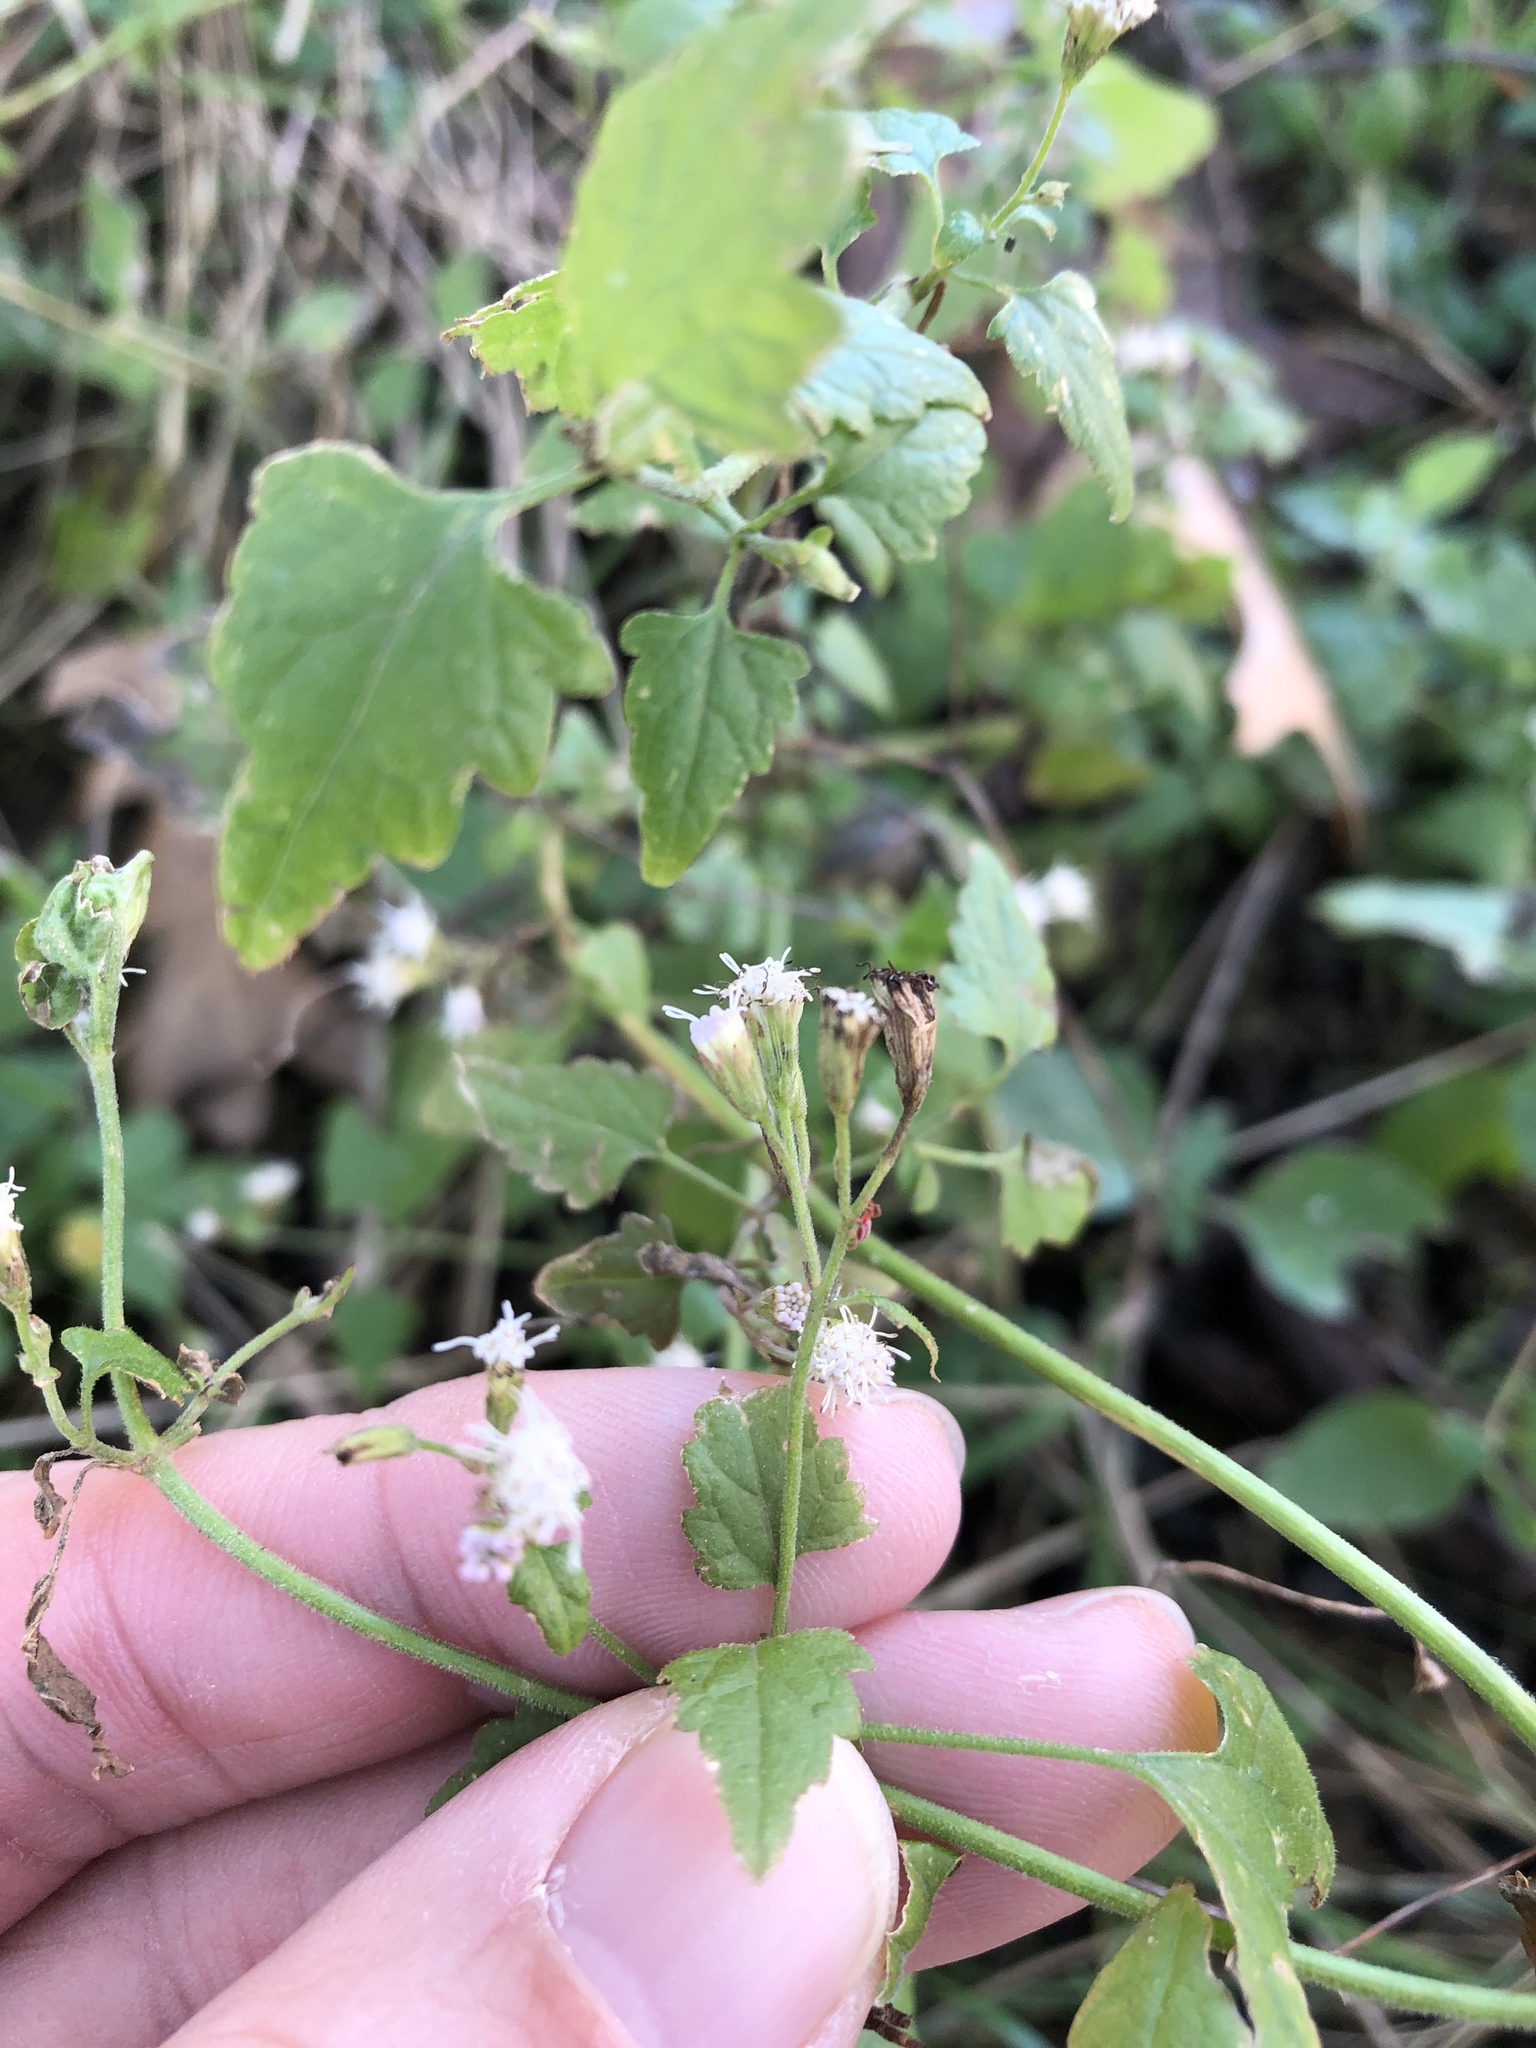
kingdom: Plantae
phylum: Tracheophyta
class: Magnoliopsida
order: Asterales
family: Asteraceae
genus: Ageratina
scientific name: Ageratina havanensis
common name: Havana snakeroot
